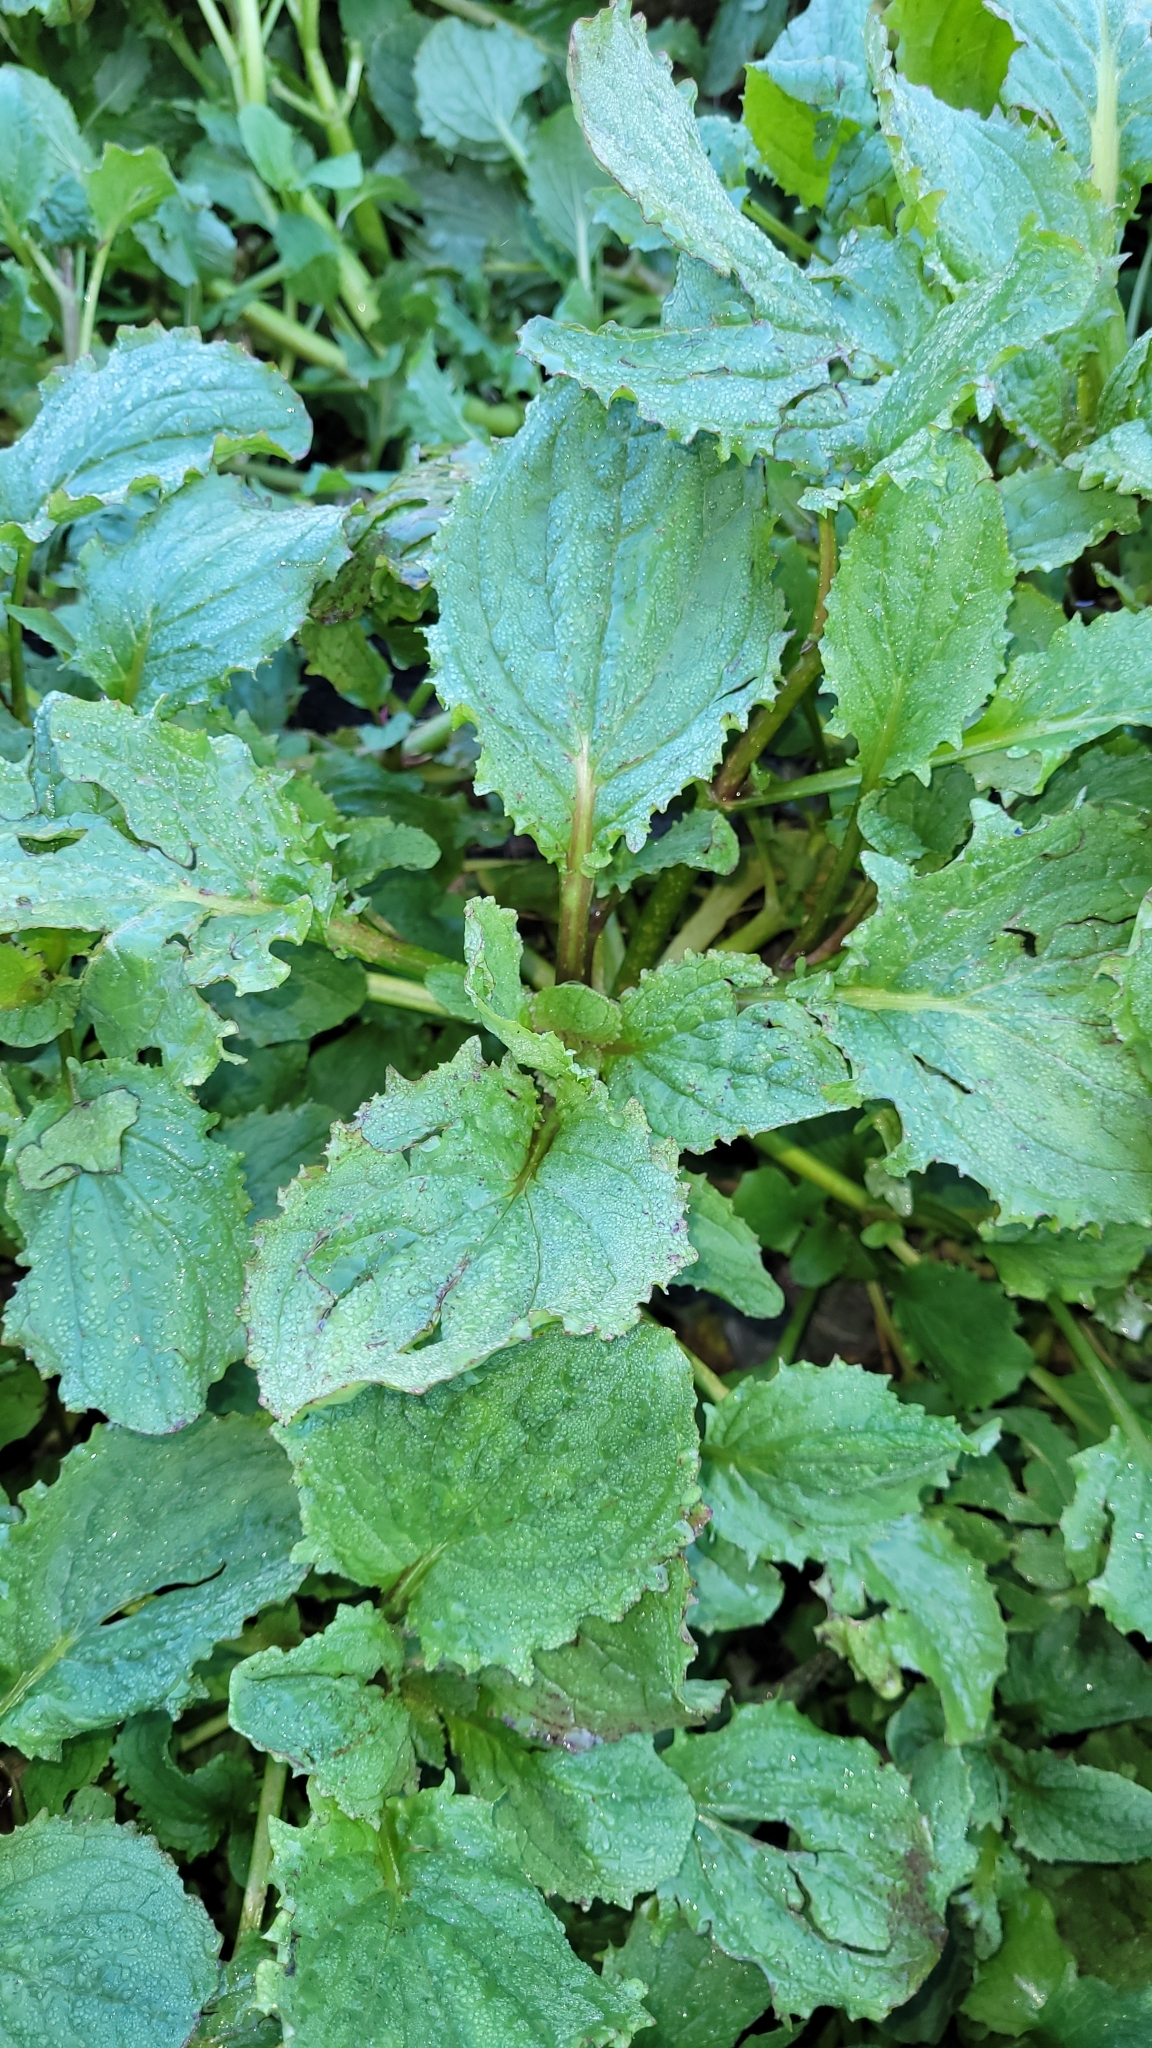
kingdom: Plantae
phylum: Tracheophyta
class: Magnoliopsida
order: Lamiales
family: Phrymaceae
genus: Erythranthe
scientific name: Erythranthe guttata
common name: Monkeyflower
